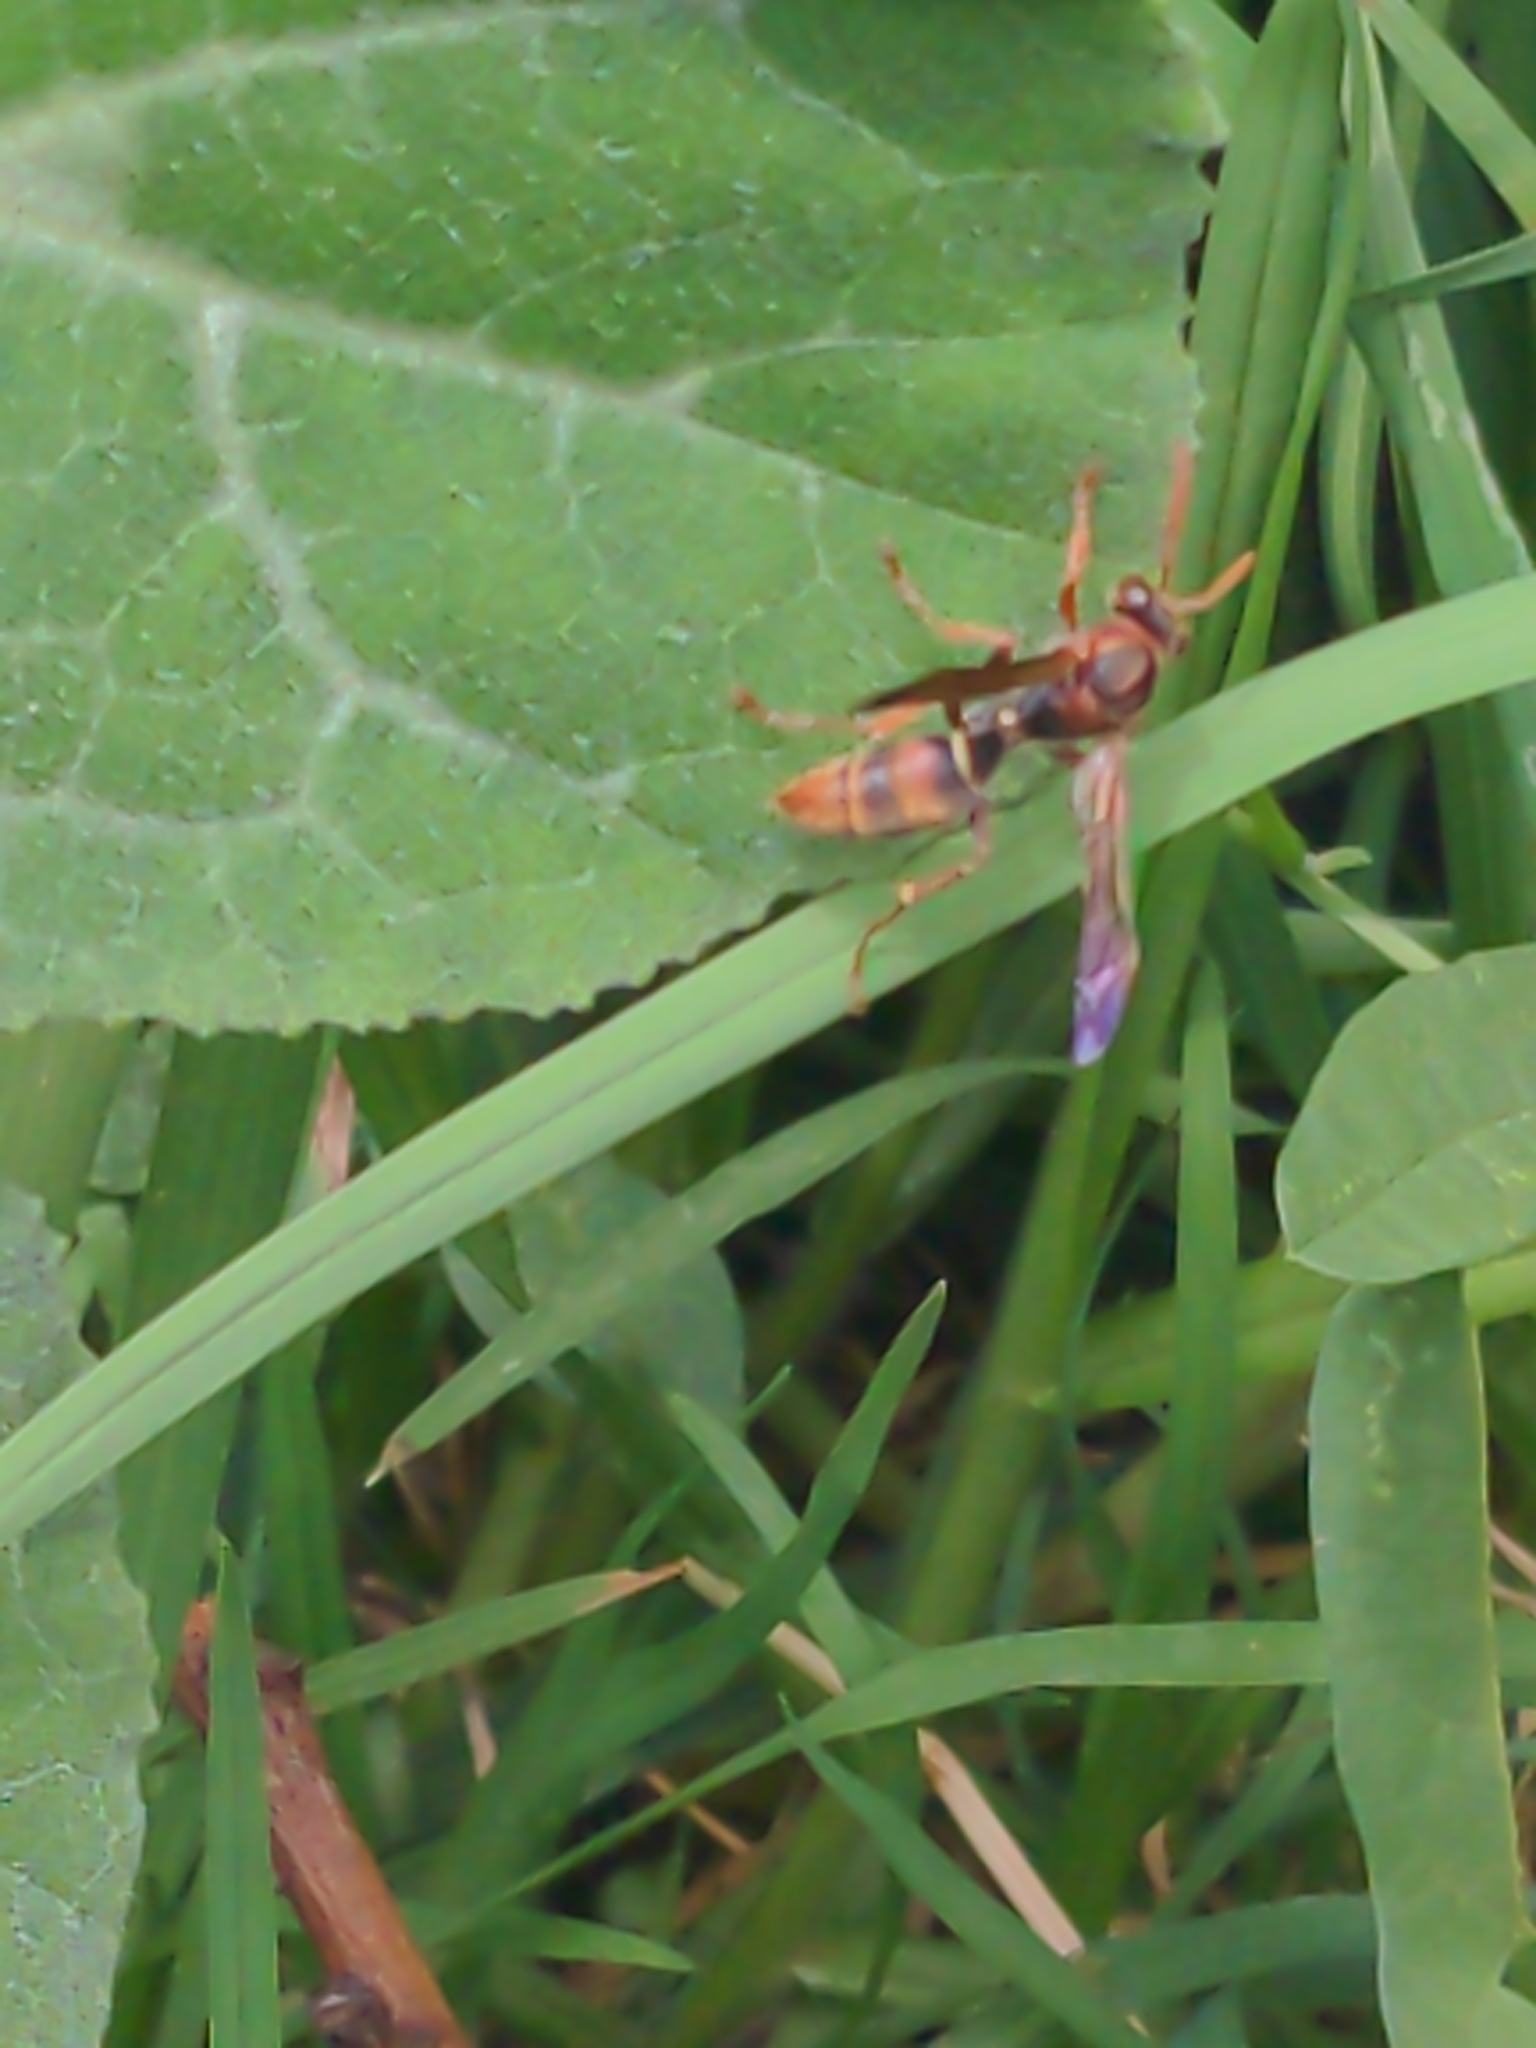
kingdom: Animalia
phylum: Arthropoda
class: Insecta
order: Hymenoptera
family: Eumenidae
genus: Polistes
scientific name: Polistes humilis
